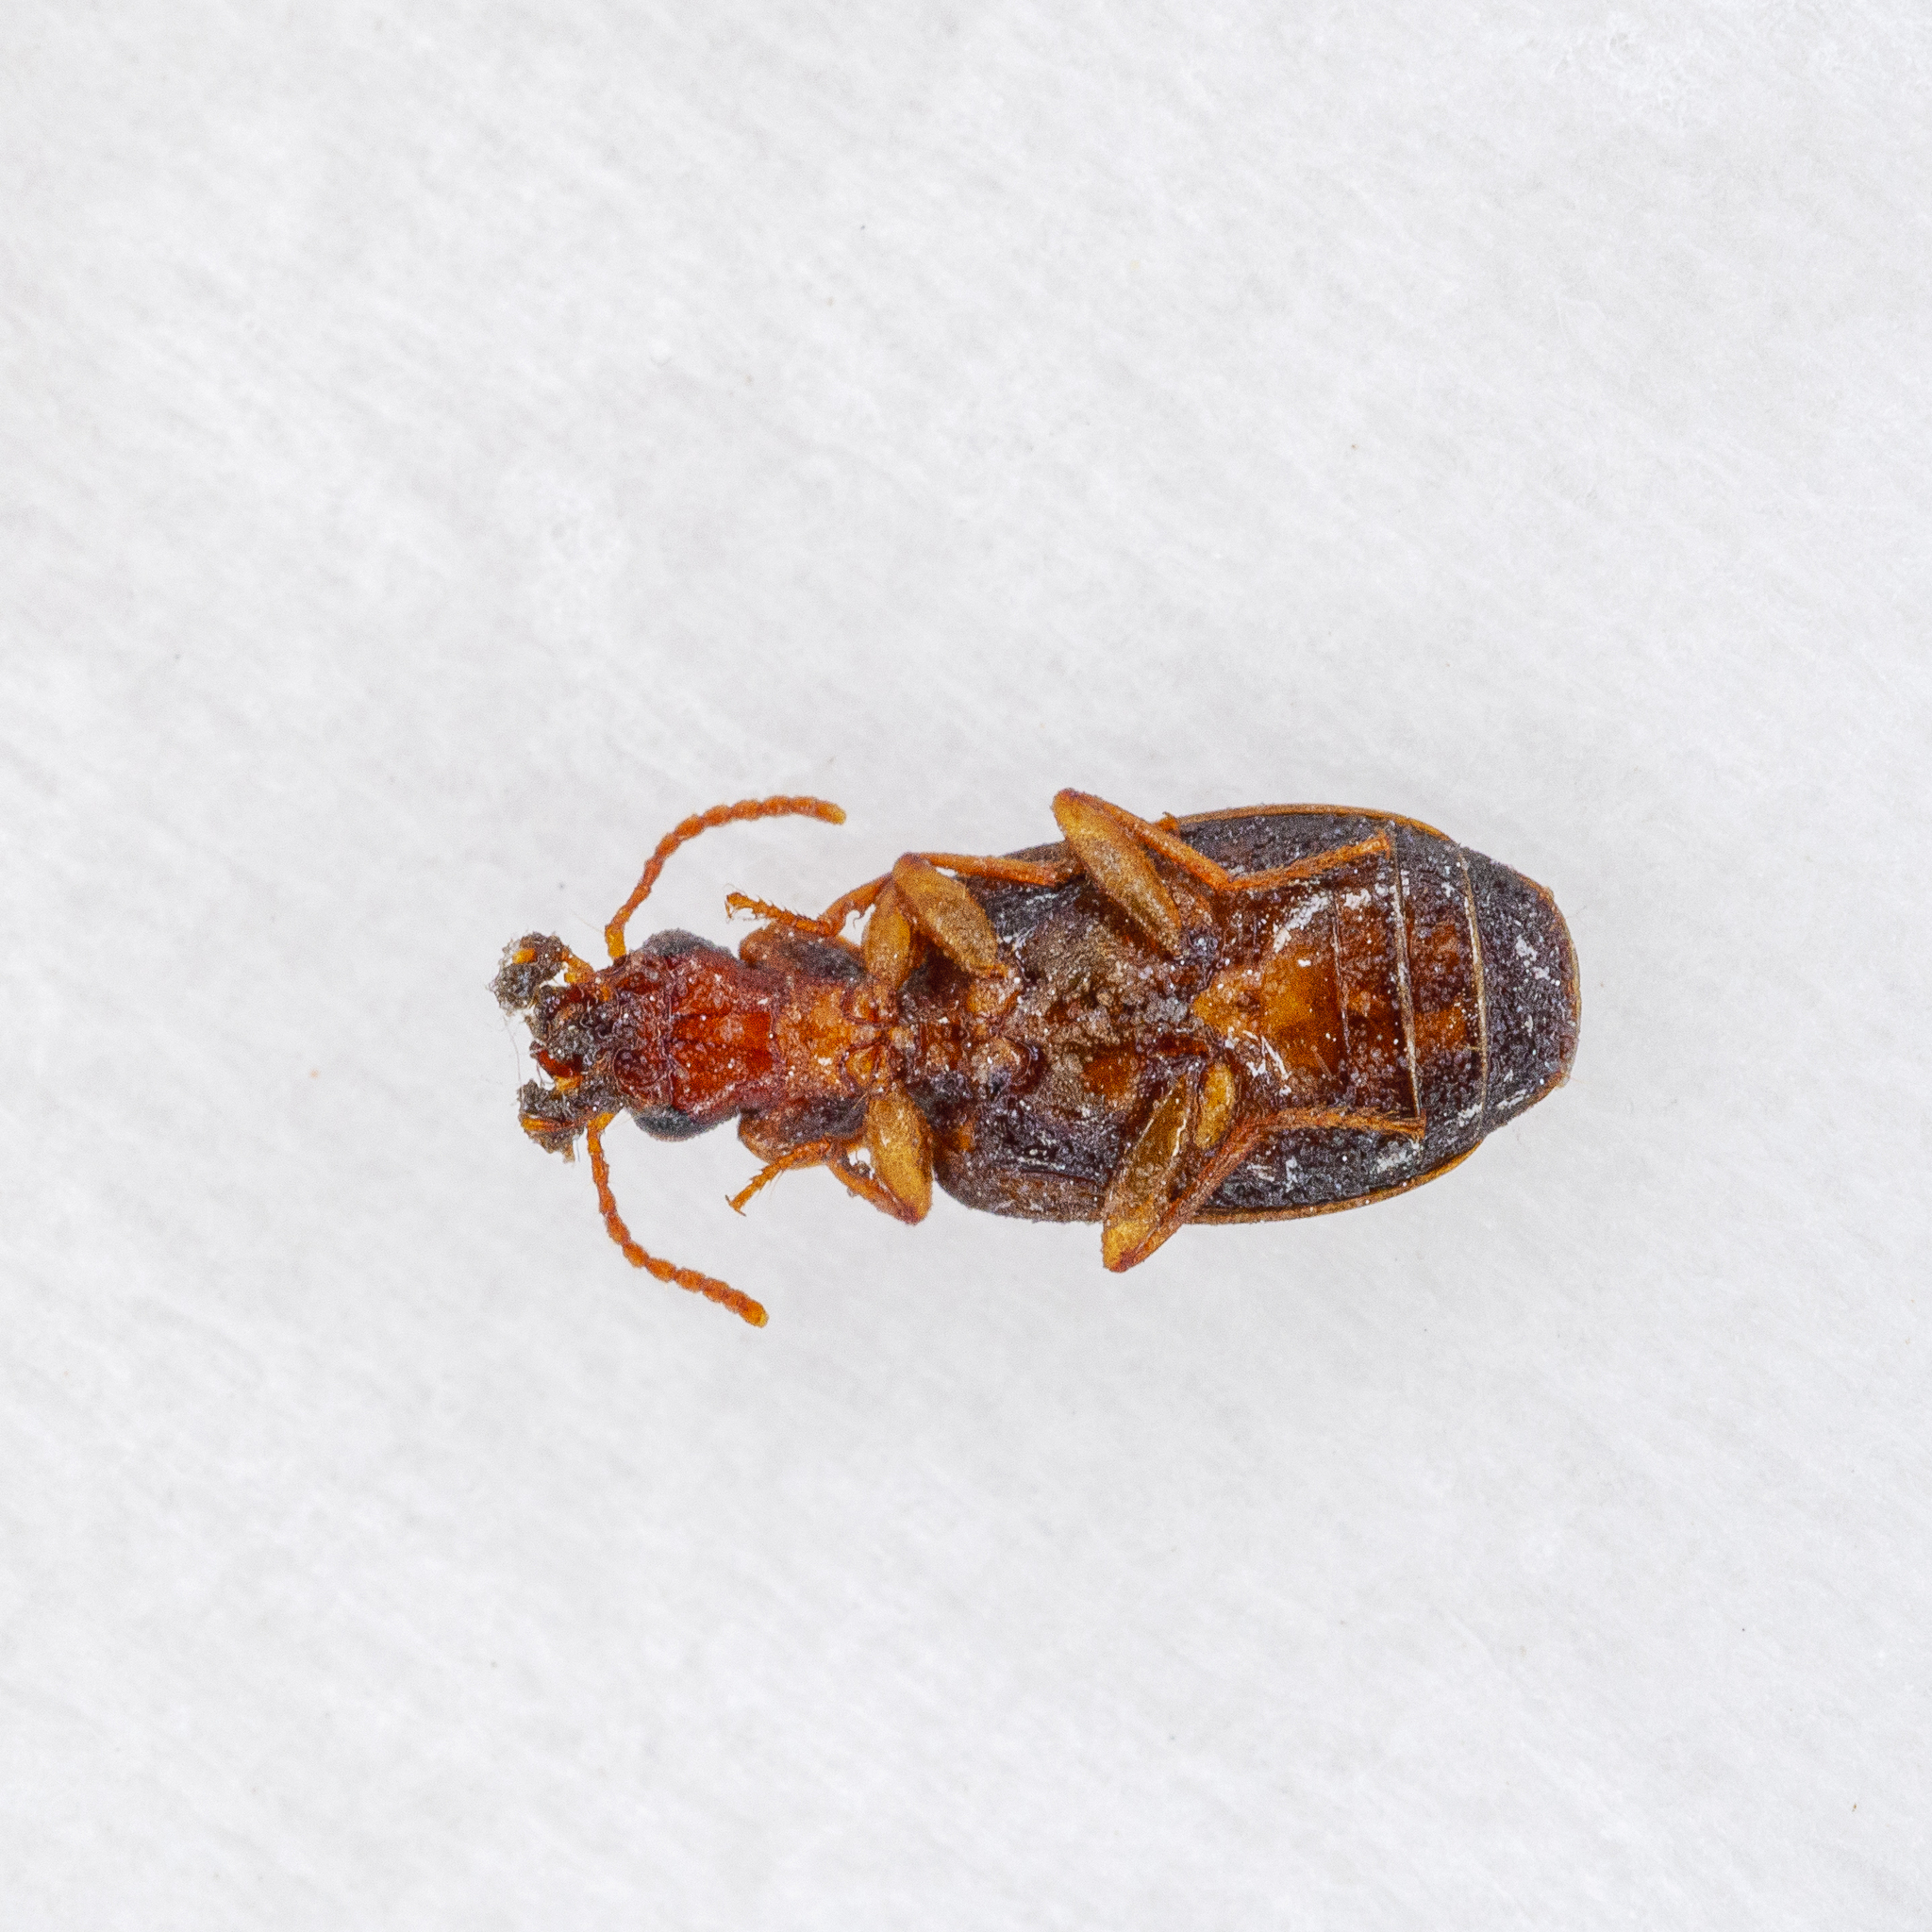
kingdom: Animalia
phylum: Arthropoda
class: Insecta
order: Coleoptera
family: Carabidae
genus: Agonocheila
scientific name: Agonocheila antipodum
